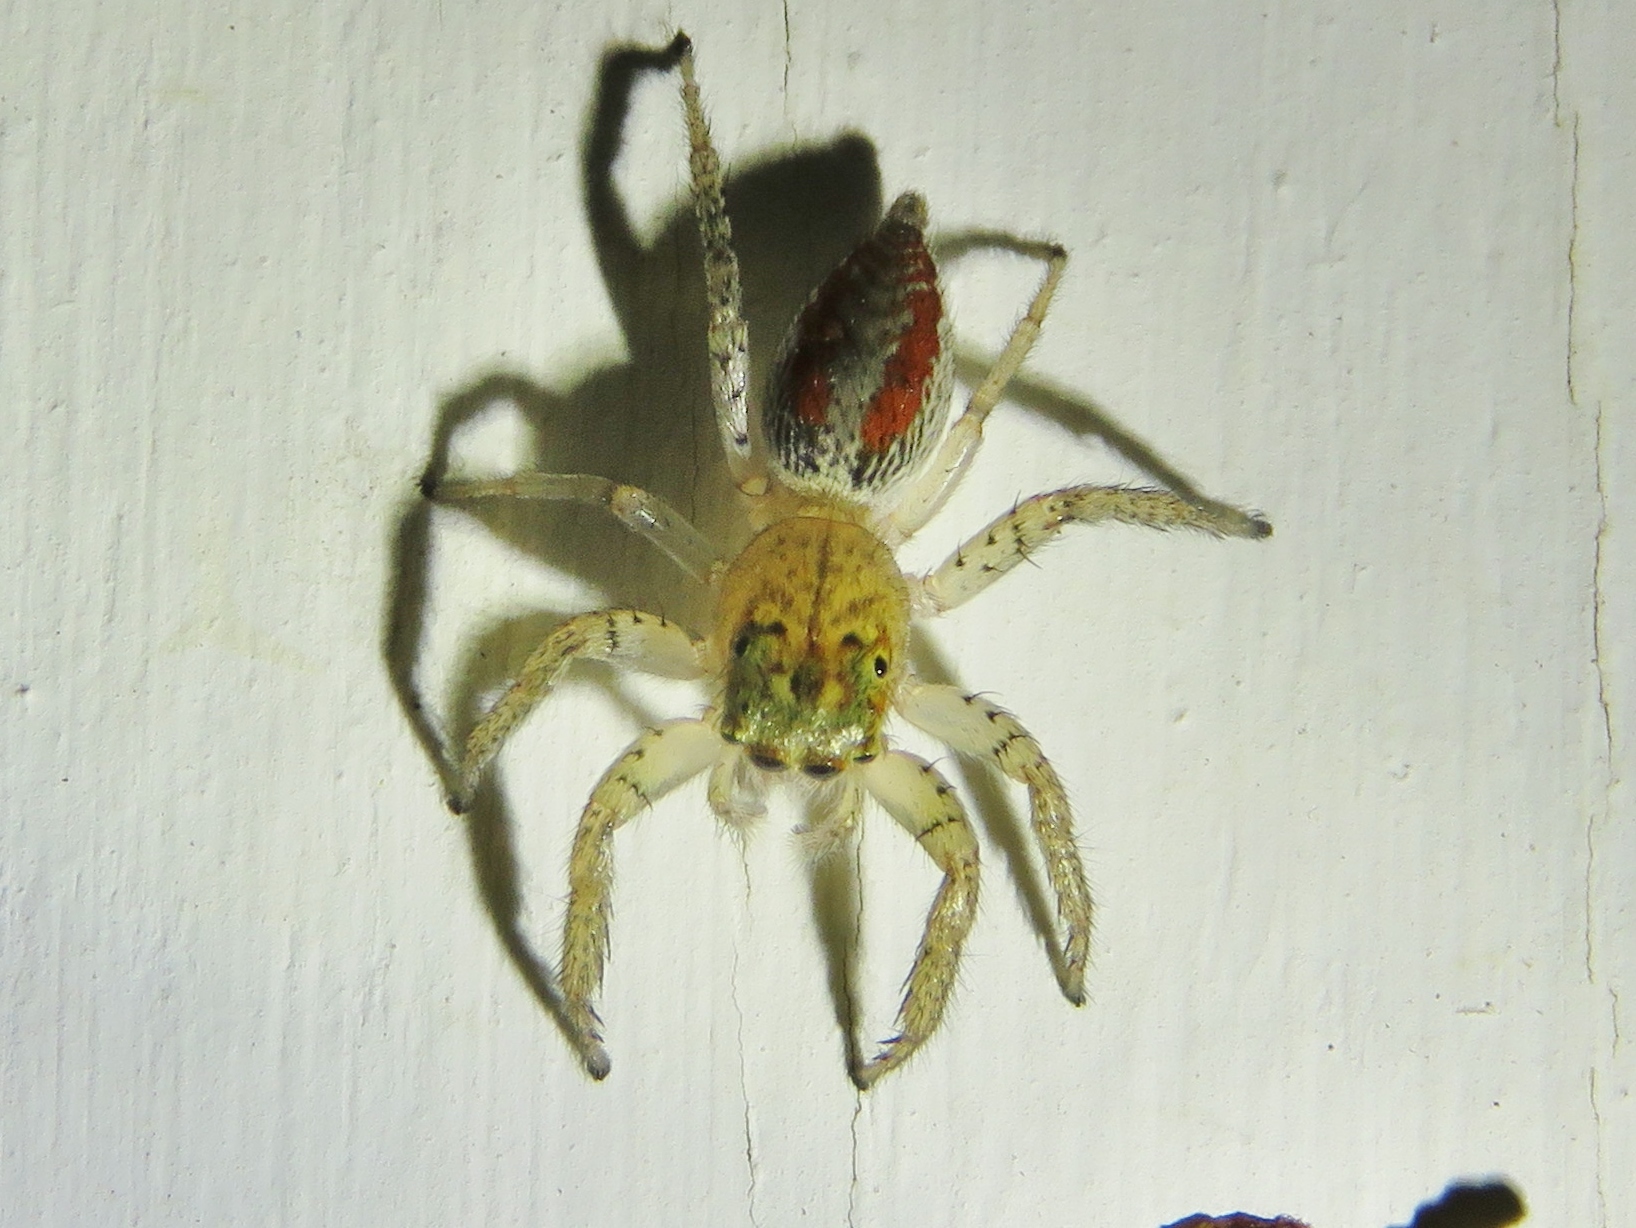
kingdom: Animalia
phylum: Arthropoda
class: Arachnida
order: Araneae
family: Salticidae
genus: Maevia
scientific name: Maevia inclemens
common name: Dimorphic jumper
